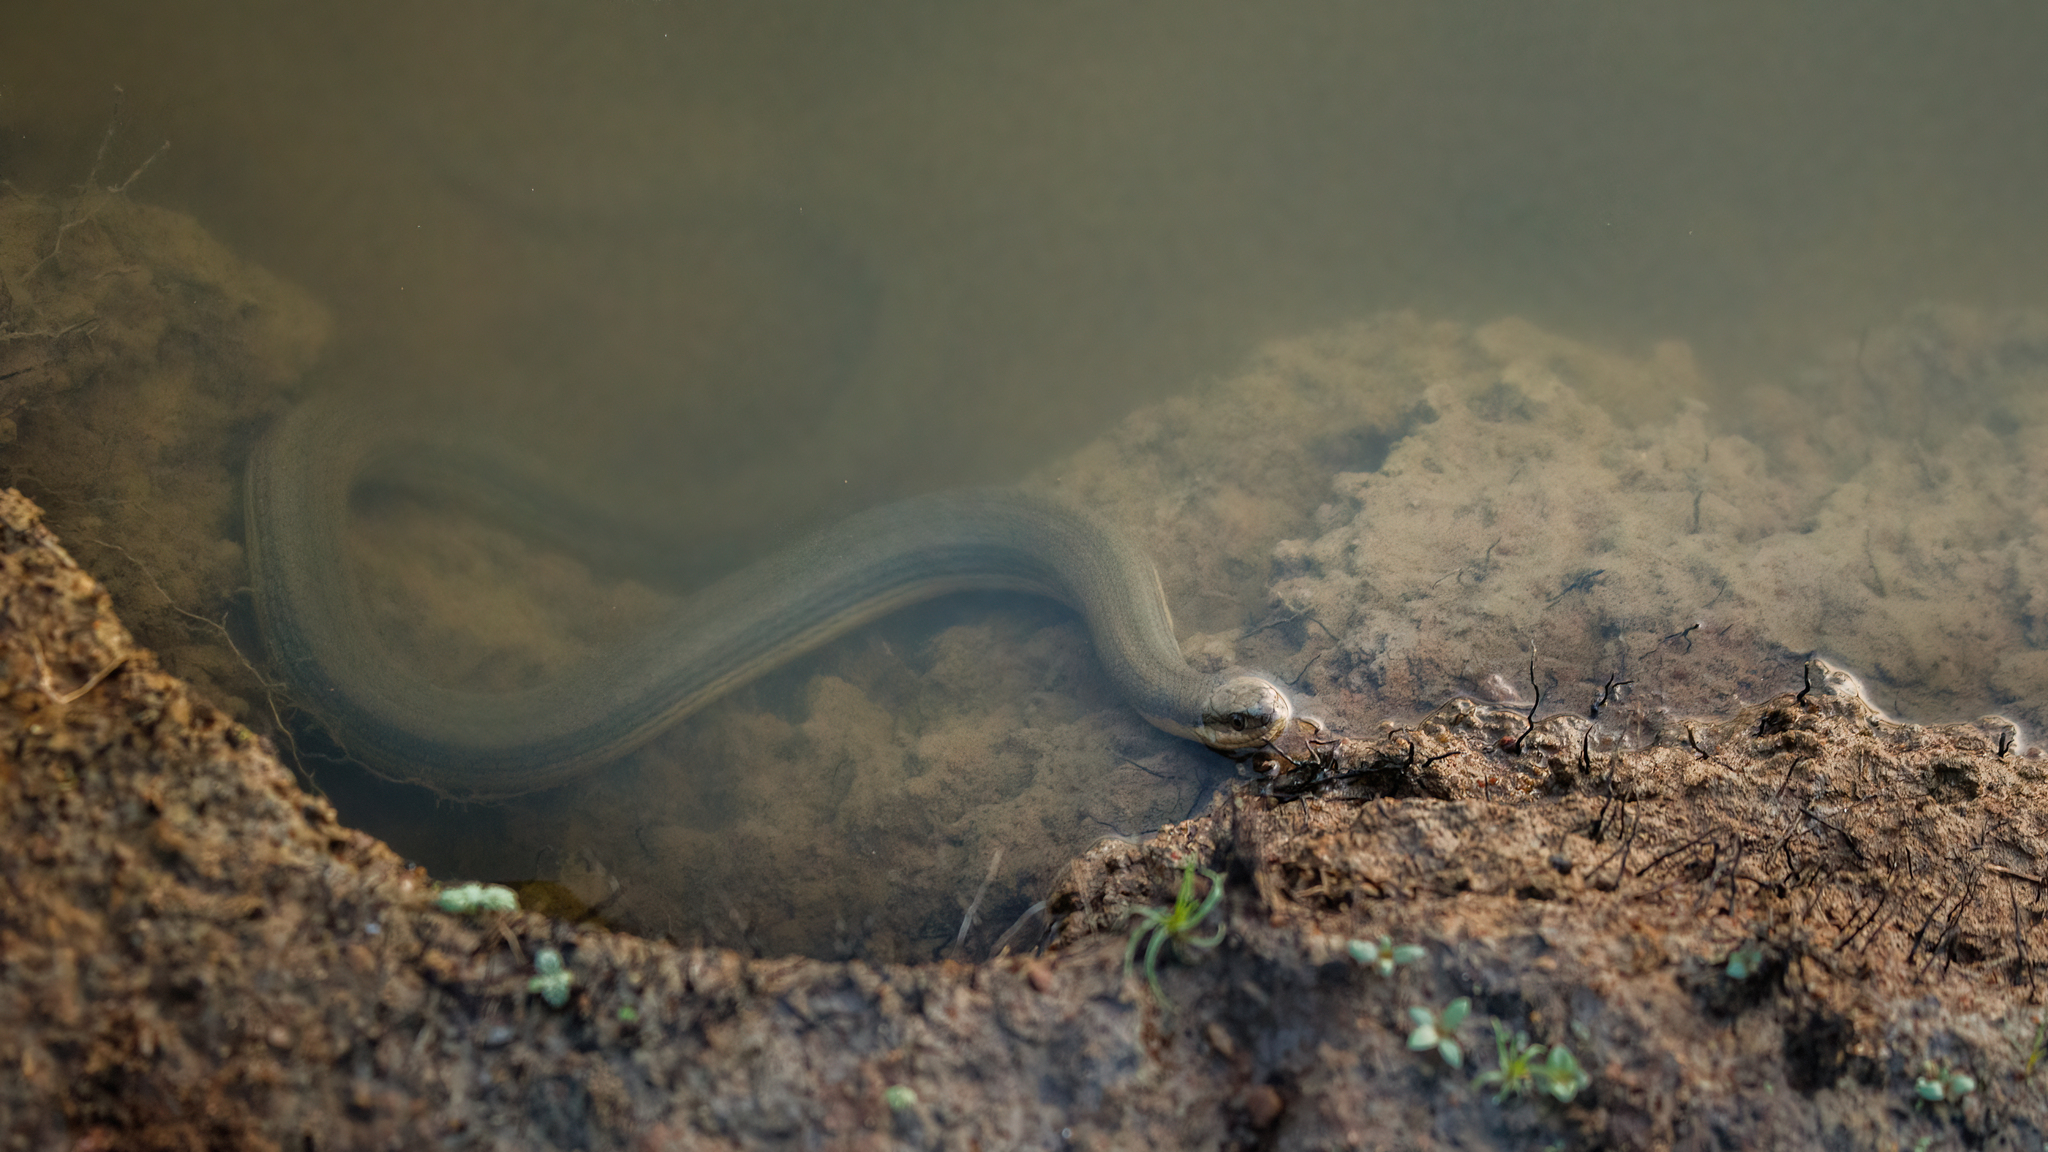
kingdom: Animalia
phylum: Chordata
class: Squamata
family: Colubridae
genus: Atretium
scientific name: Atretium schistosum
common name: Olive keelback wart snake
